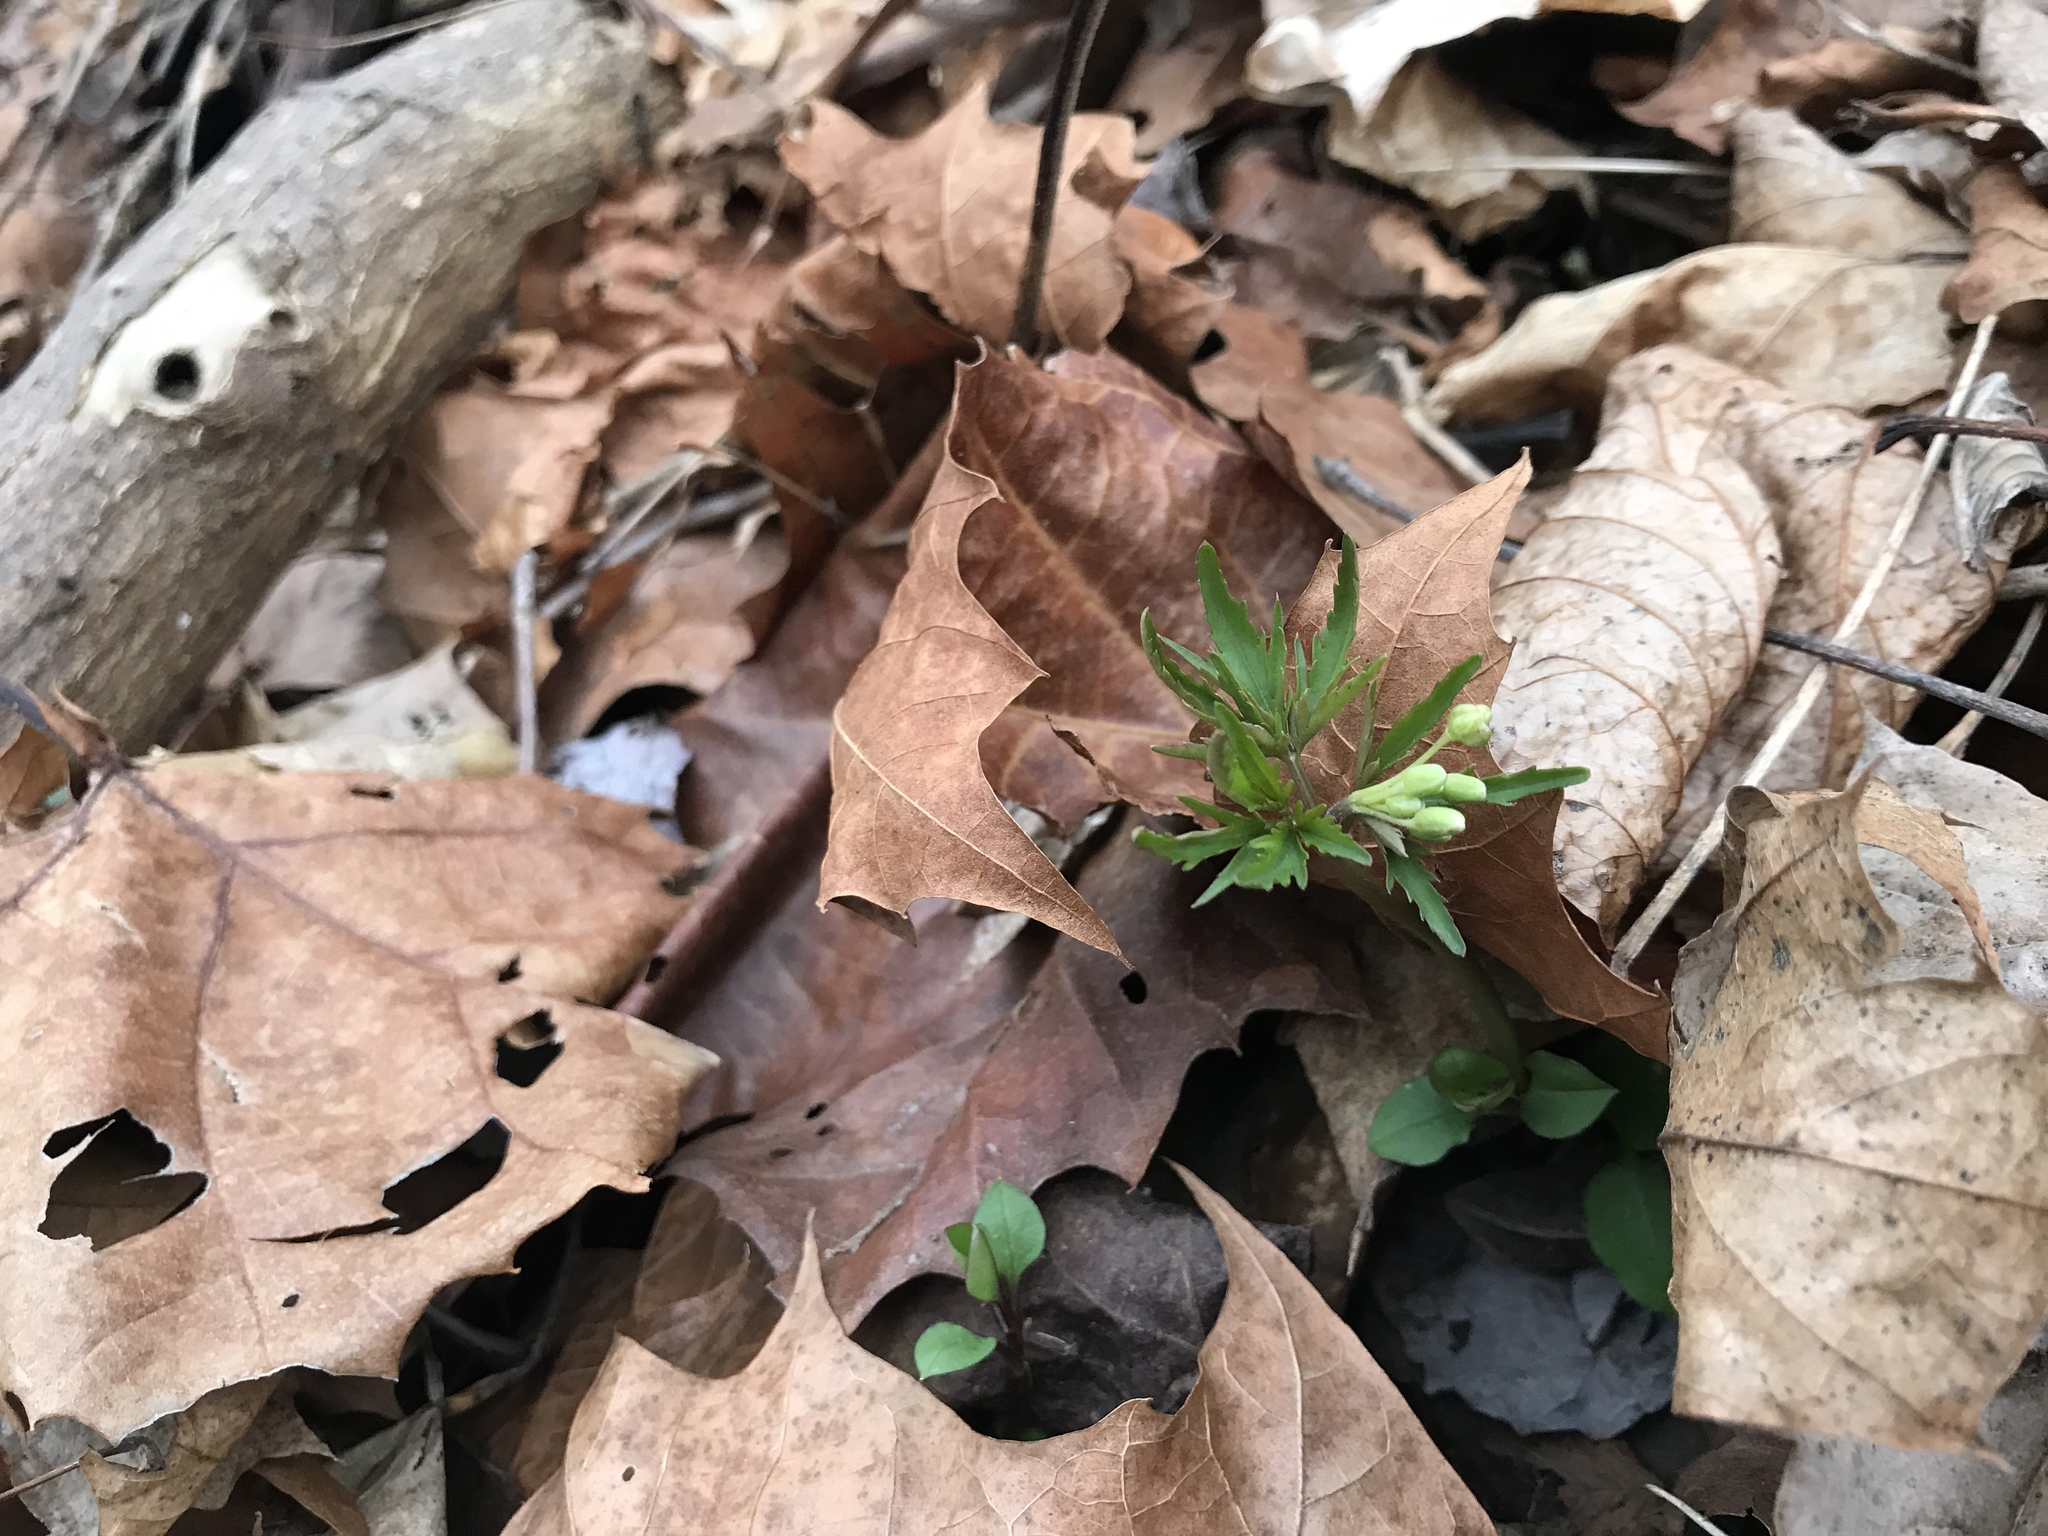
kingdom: Plantae
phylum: Tracheophyta
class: Magnoliopsida
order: Brassicales
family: Brassicaceae
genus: Cardamine
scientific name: Cardamine concatenata
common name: Cut-leaf toothcup
